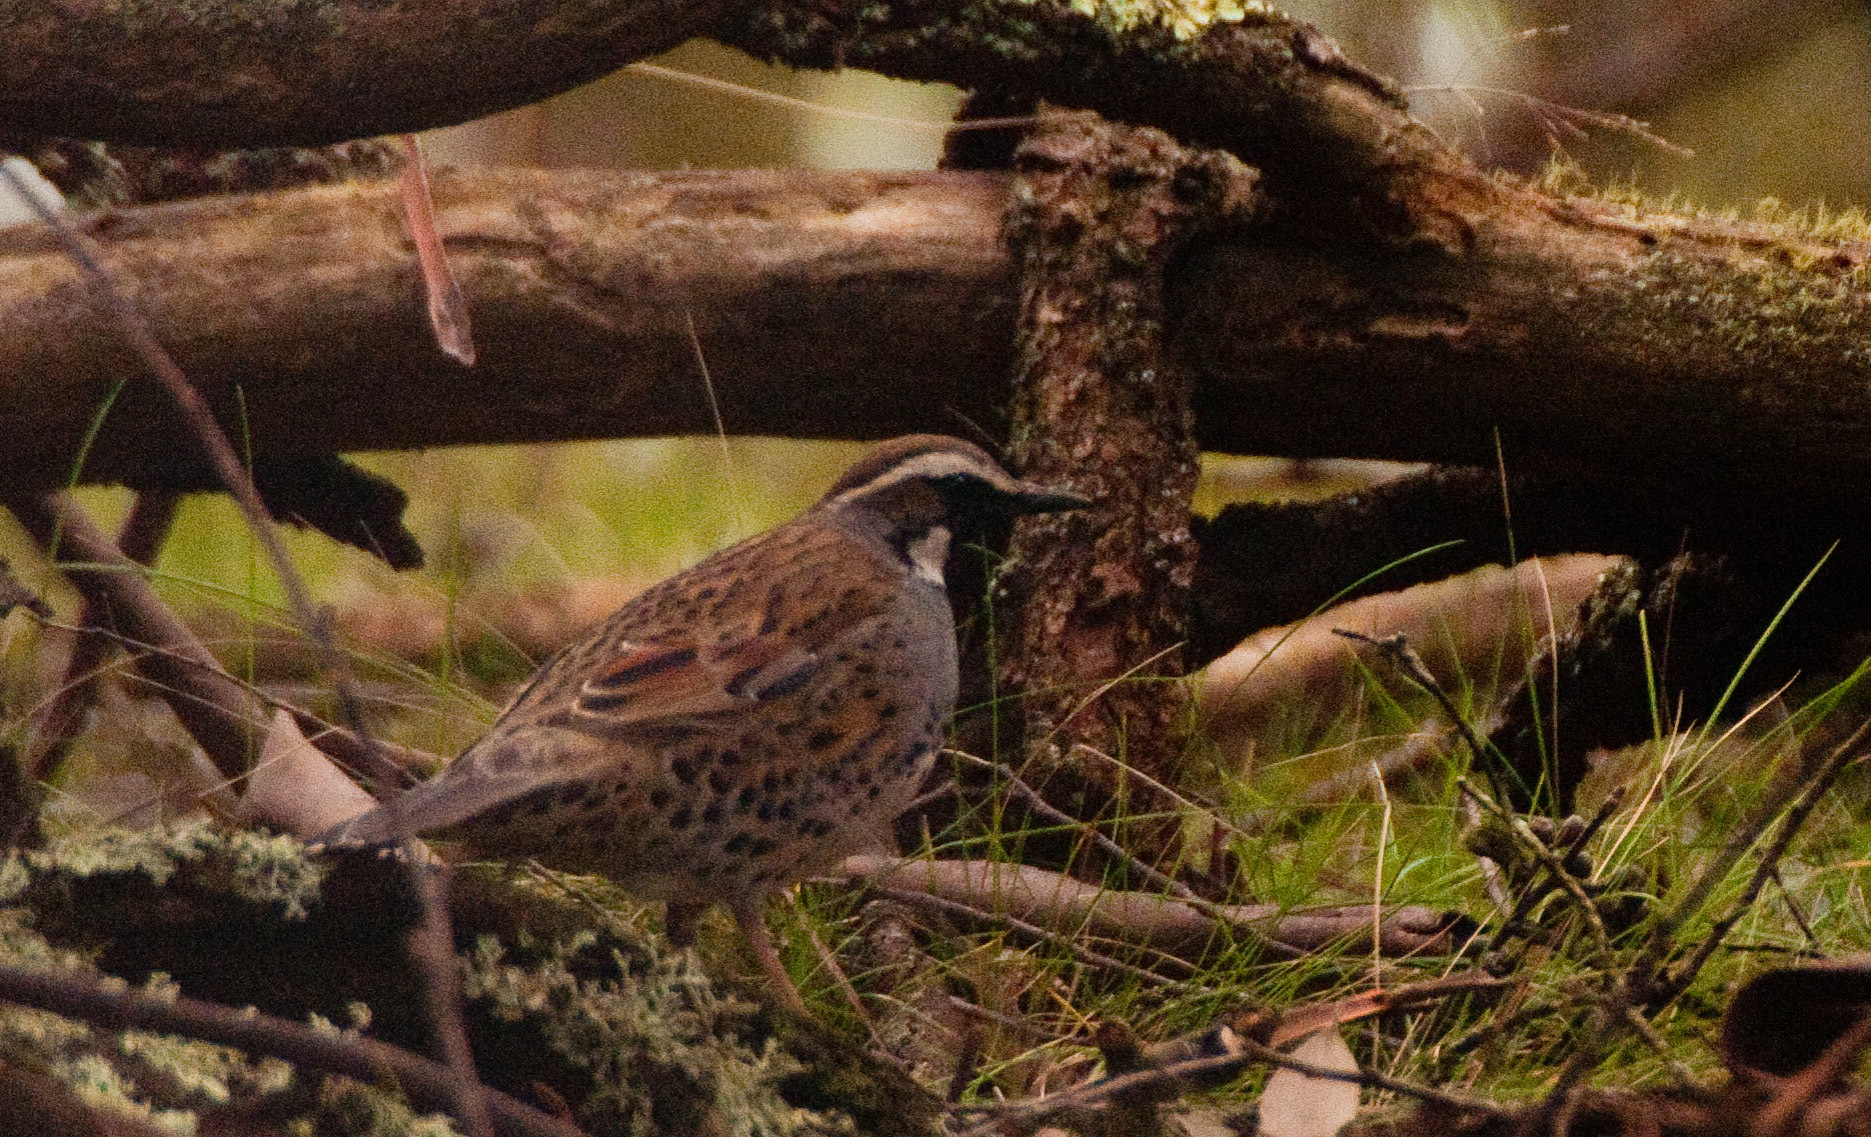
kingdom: Animalia
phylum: Chordata
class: Aves
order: Passeriformes
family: Psophodidae
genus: Cinclosoma
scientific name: Cinclosoma punctatum
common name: Spotted quail-thrush
